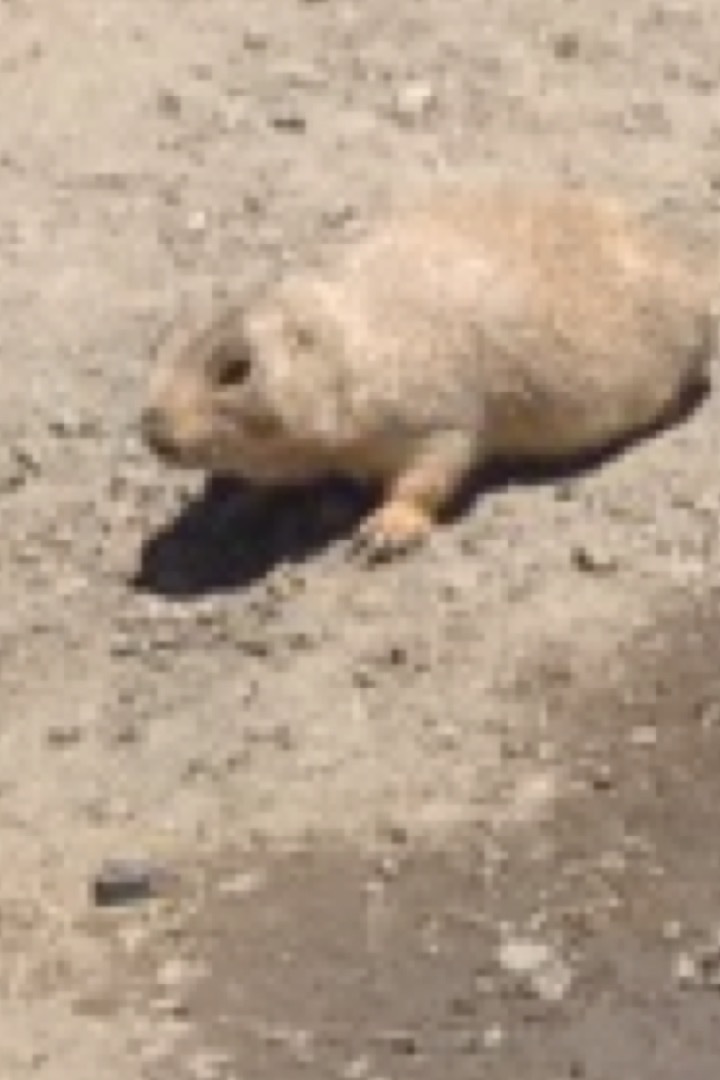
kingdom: Animalia
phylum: Chordata
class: Mammalia
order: Rodentia
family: Sciuridae
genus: Cynomys
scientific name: Cynomys ludovicianus
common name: Black-tailed prairie dog
